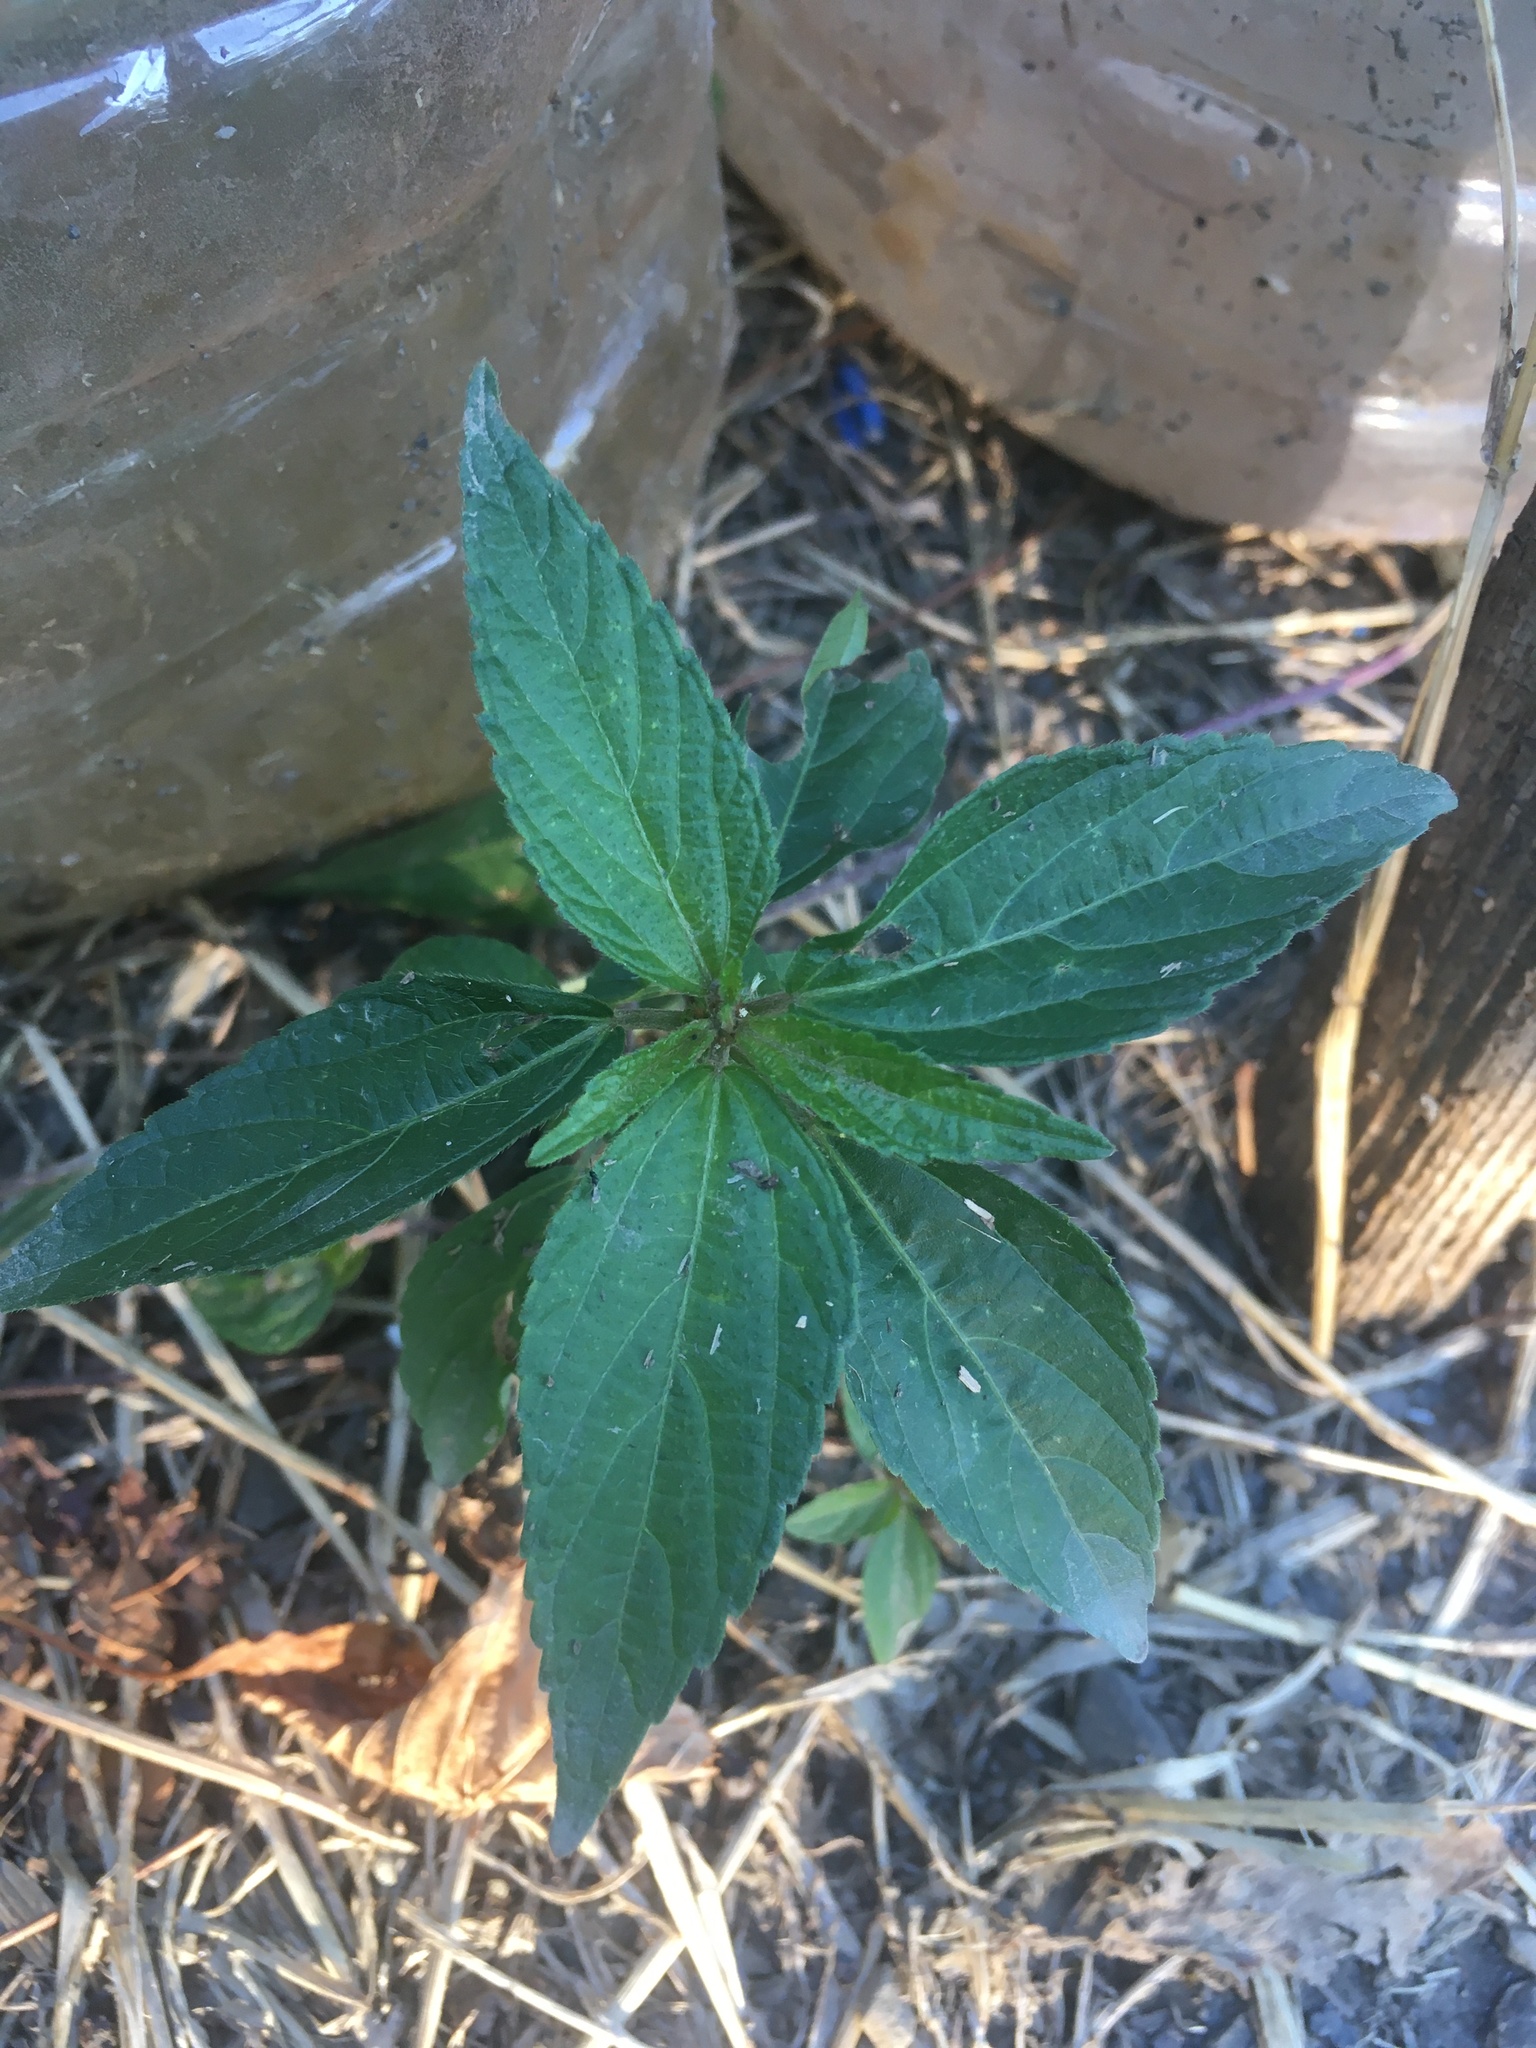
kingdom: Plantae
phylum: Tracheophyta
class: Magnoliopsida
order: Malpighiales
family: Euphorbiaceae
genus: Acalypha
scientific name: Acalypha australis
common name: Asian copperleaf
